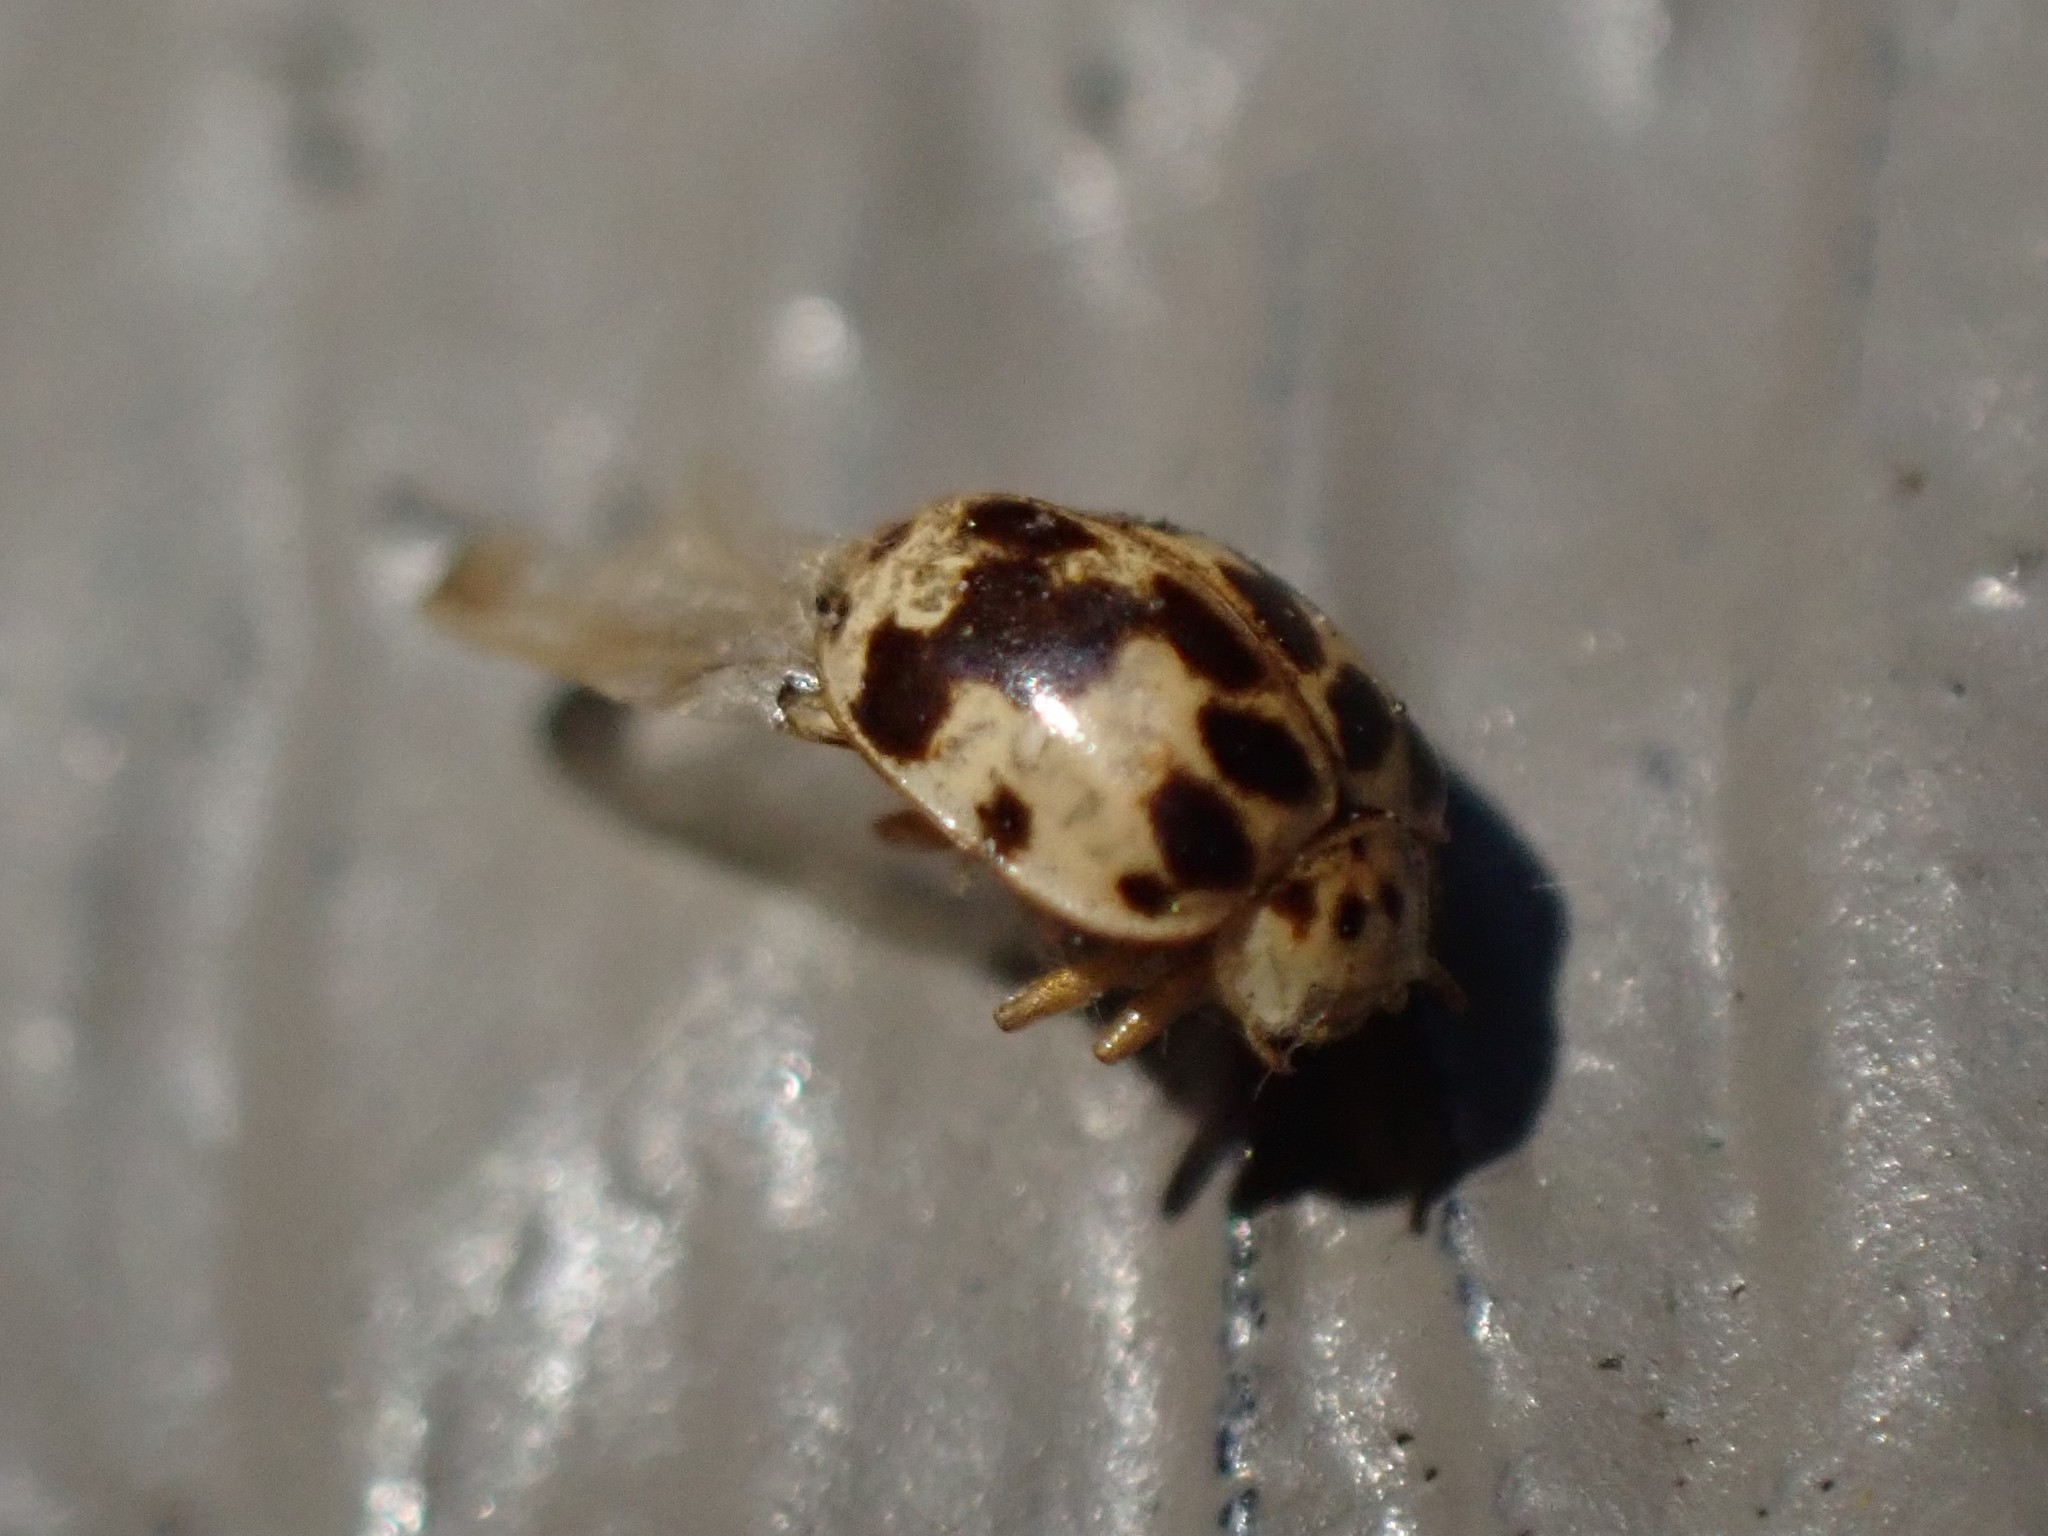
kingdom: Animalia
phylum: Arthropoda
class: Insecta
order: Coleoptera
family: Coccinellidae
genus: Psyllobora
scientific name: Psyllobora borealis
